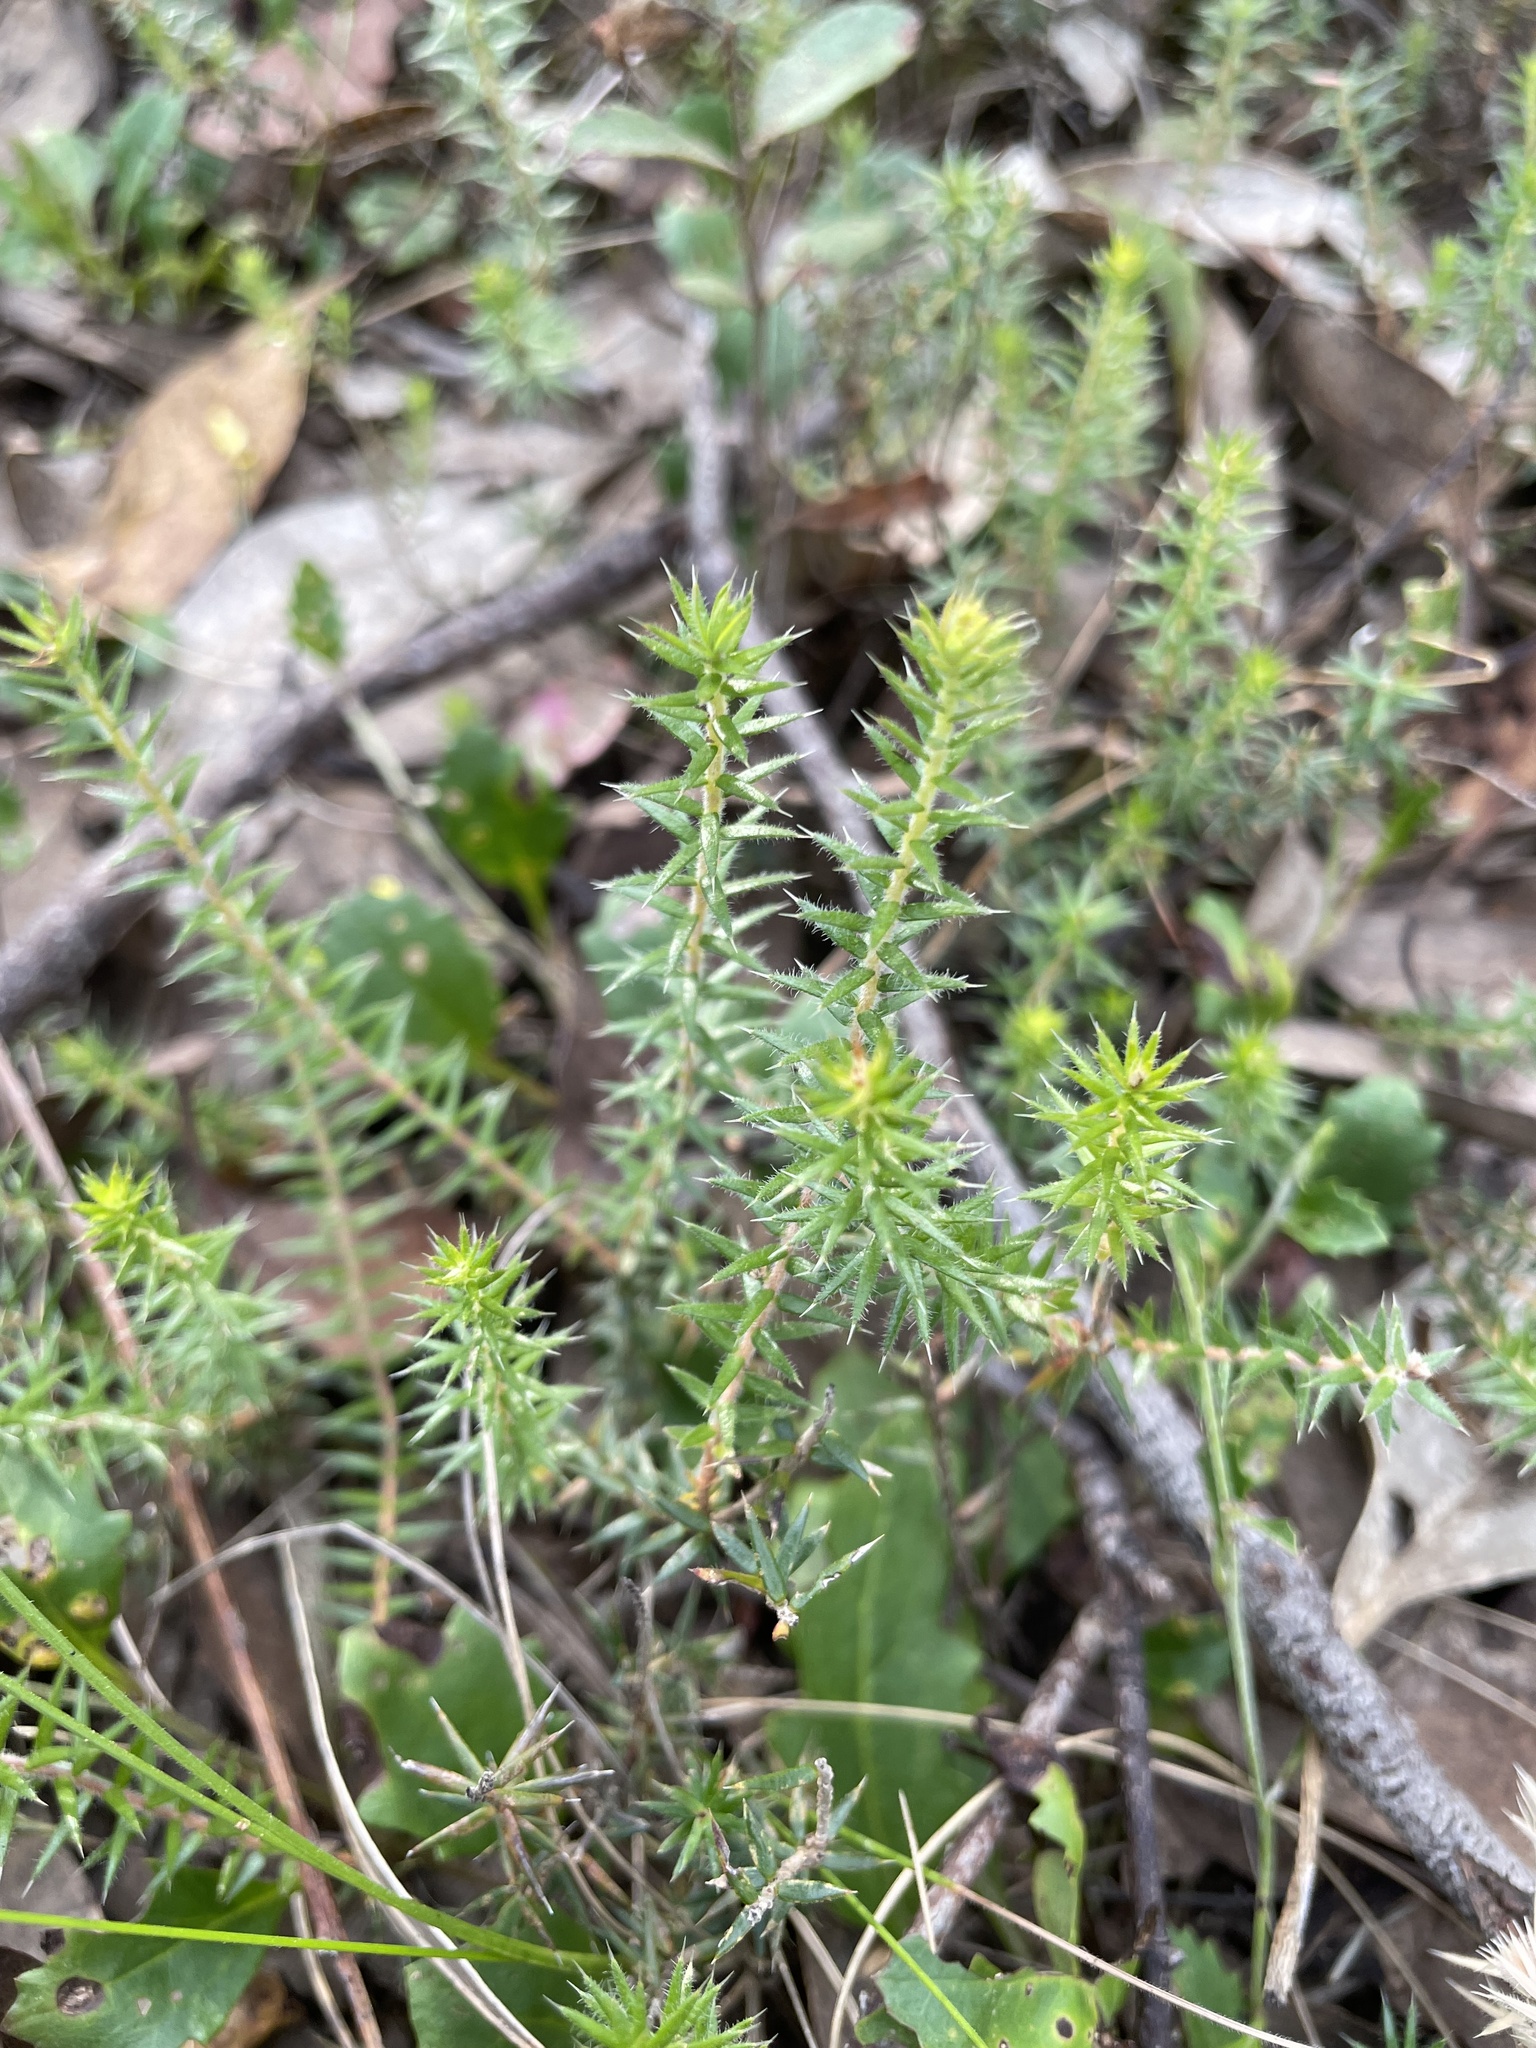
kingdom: Plantae
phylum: Tracheophyta
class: Magnoliopsida
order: Ericales
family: Ericaceae
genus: Acrotriche
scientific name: Acrotriche serrulata
